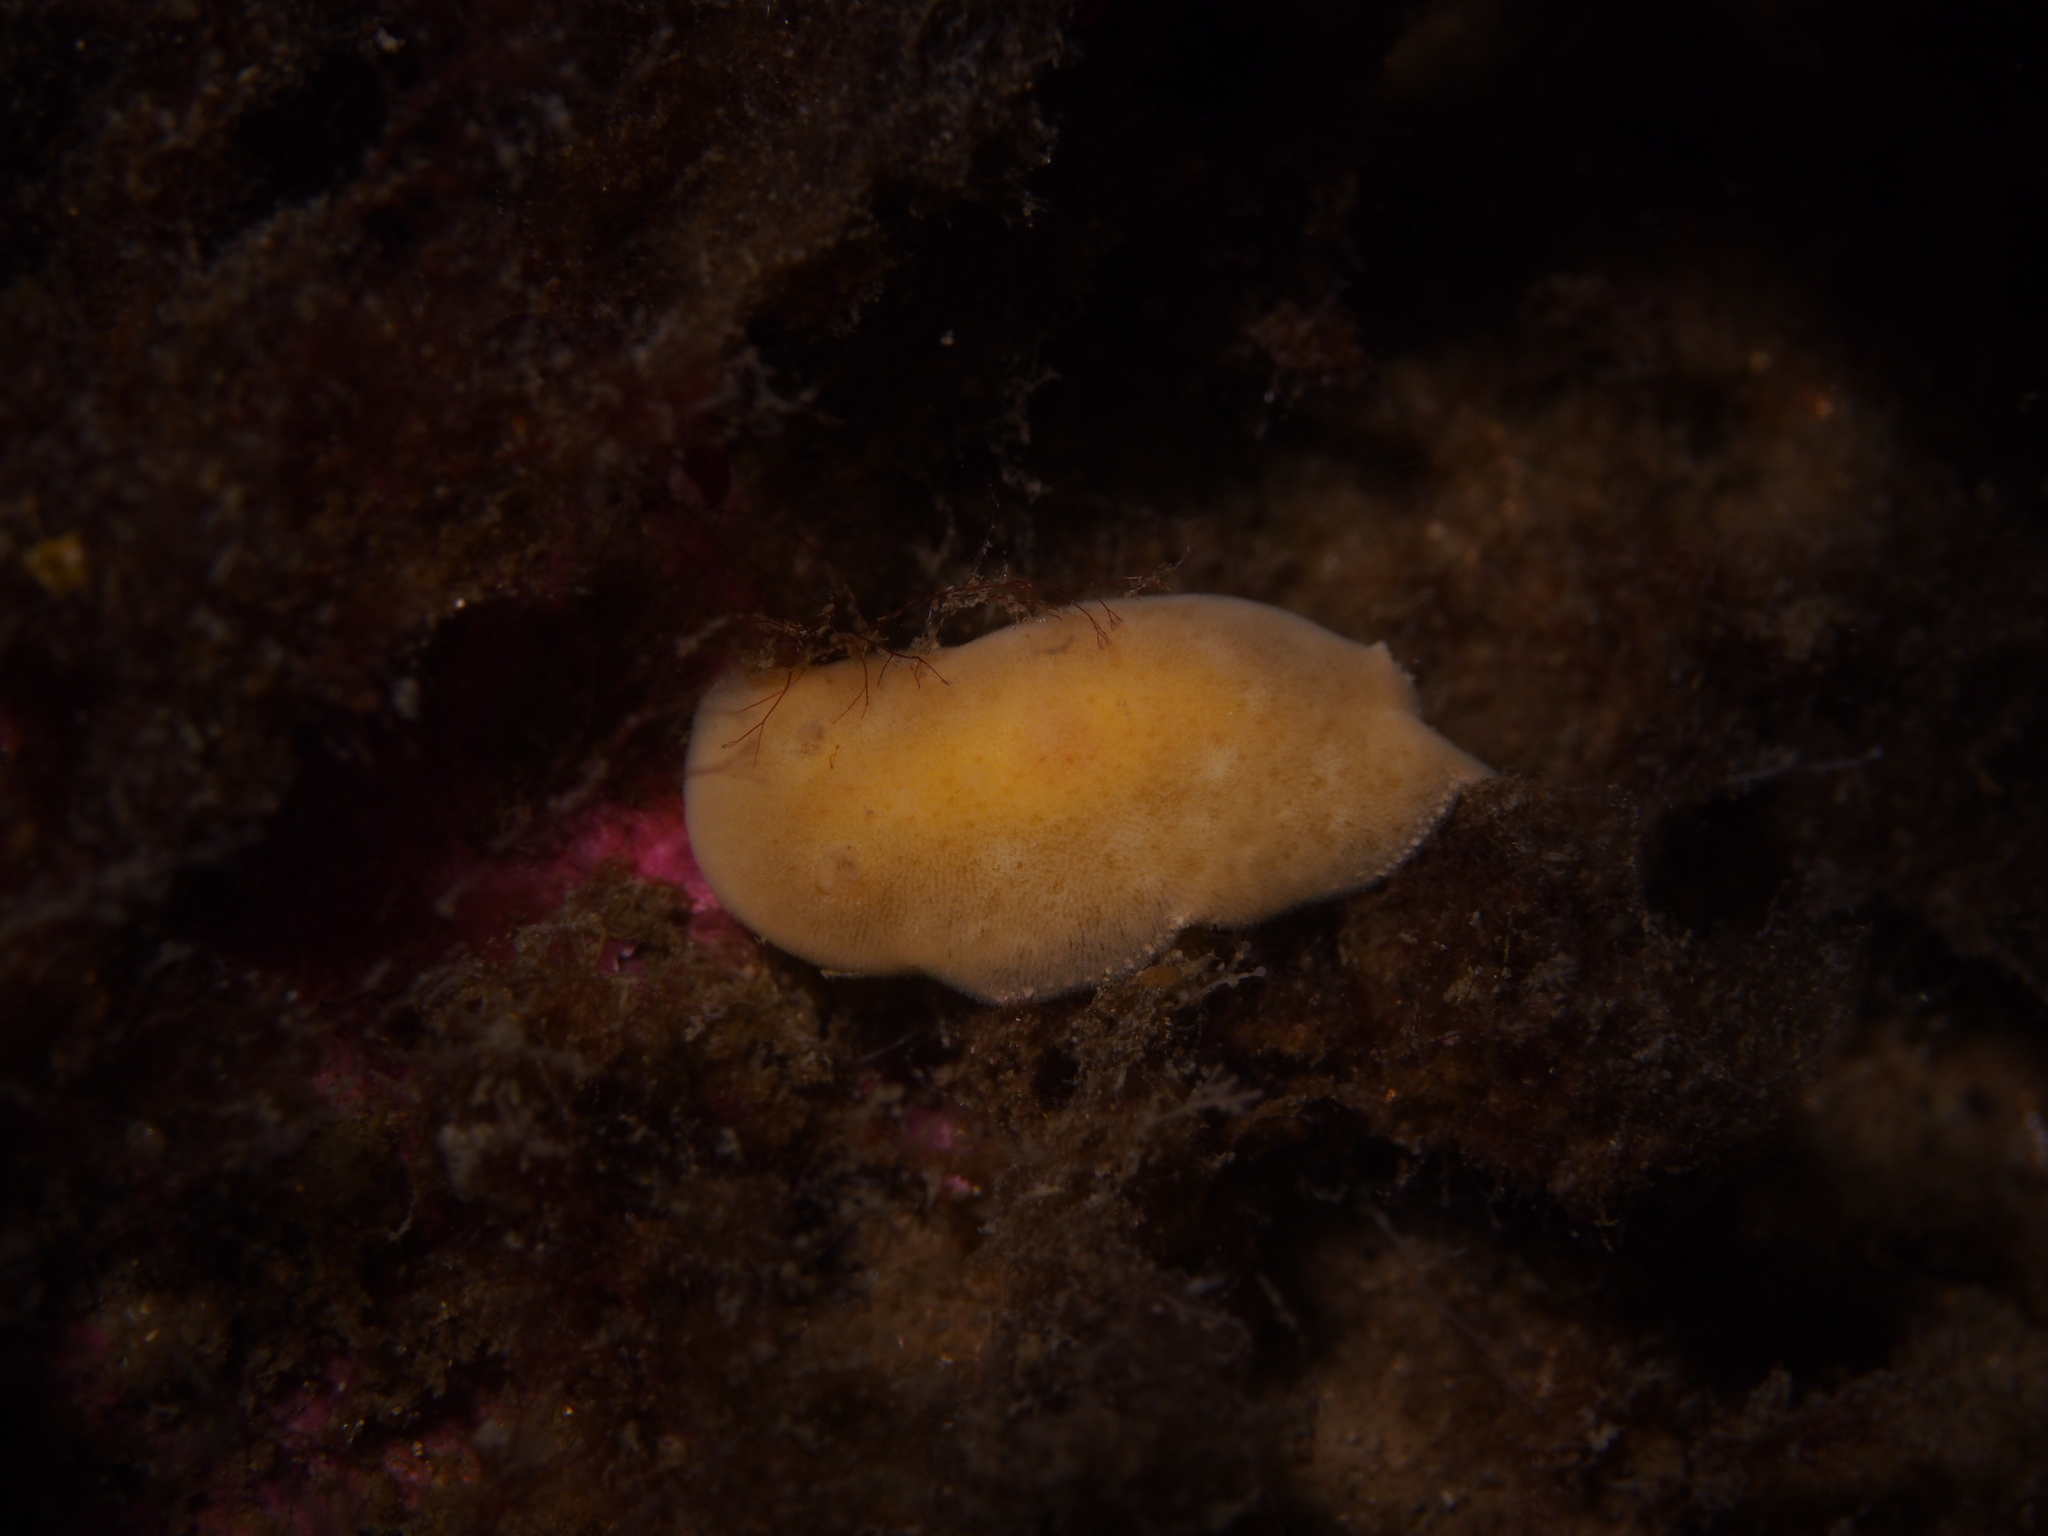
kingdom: Animalia
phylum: Mollusca
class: Gastropoda
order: Nudibranchia
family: Discodorididae
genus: Jorunna
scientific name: Jorunna tomentosa
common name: Grey sea slug
